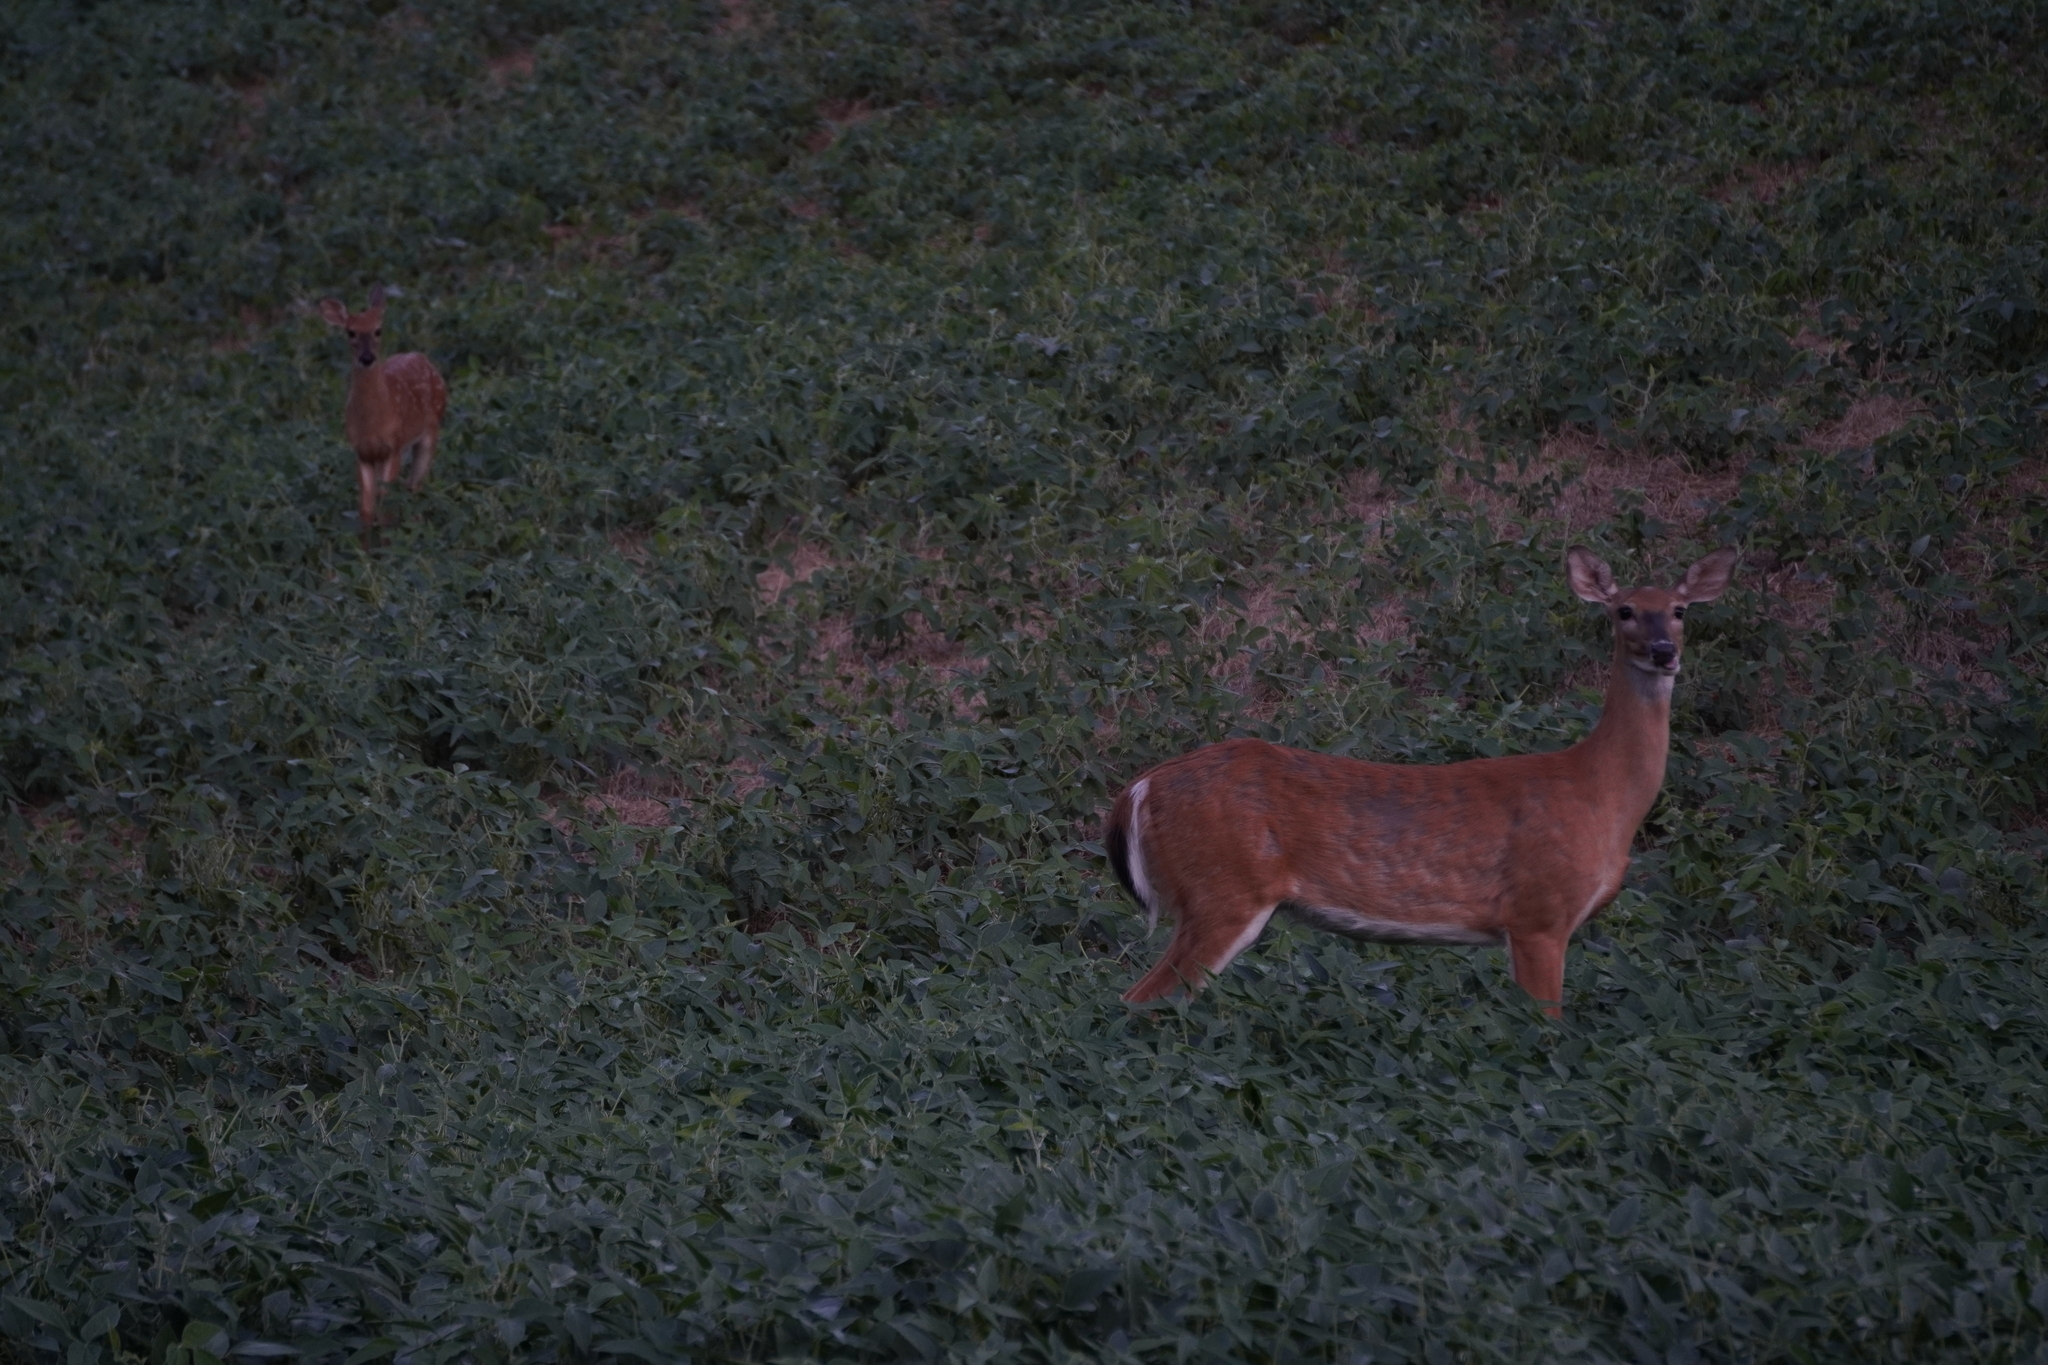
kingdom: Animalia
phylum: Chordata
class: Mammalia
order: Artiodactyla
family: Cervidae
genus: Odocoileus
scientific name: Odocoileus virginianus
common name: White-tailed deer
